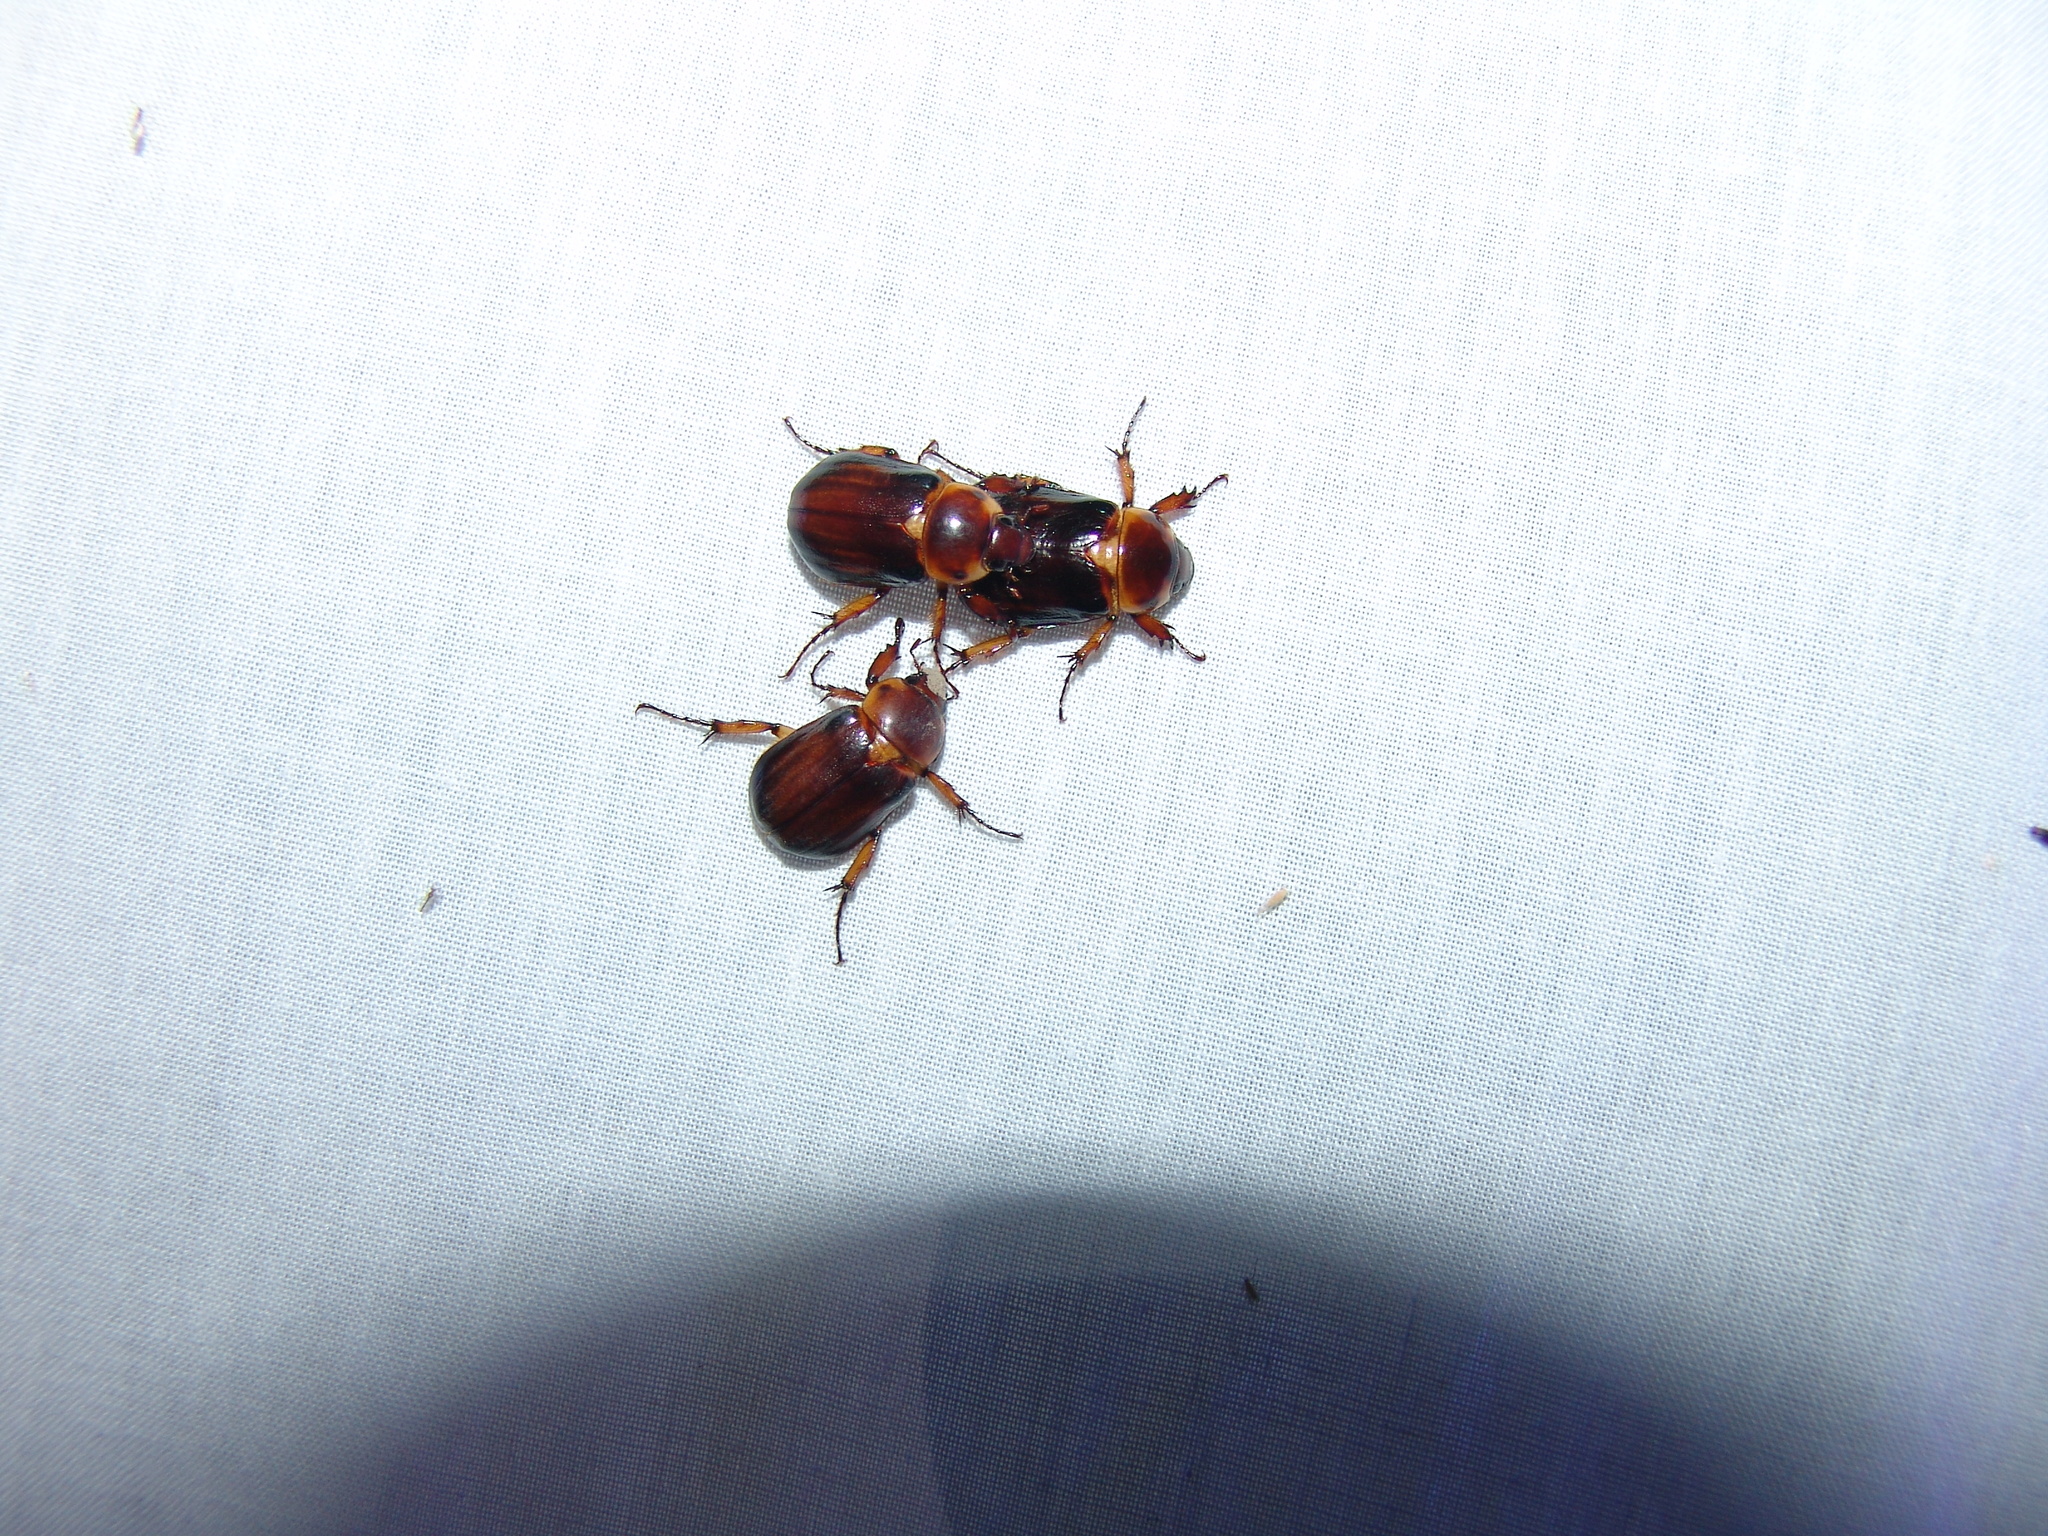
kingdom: Animalia
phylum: Arthropoda
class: Insecta
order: Coleoptera
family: Scarabaeidae
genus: Ancognatha
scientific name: Ancognatha manca
